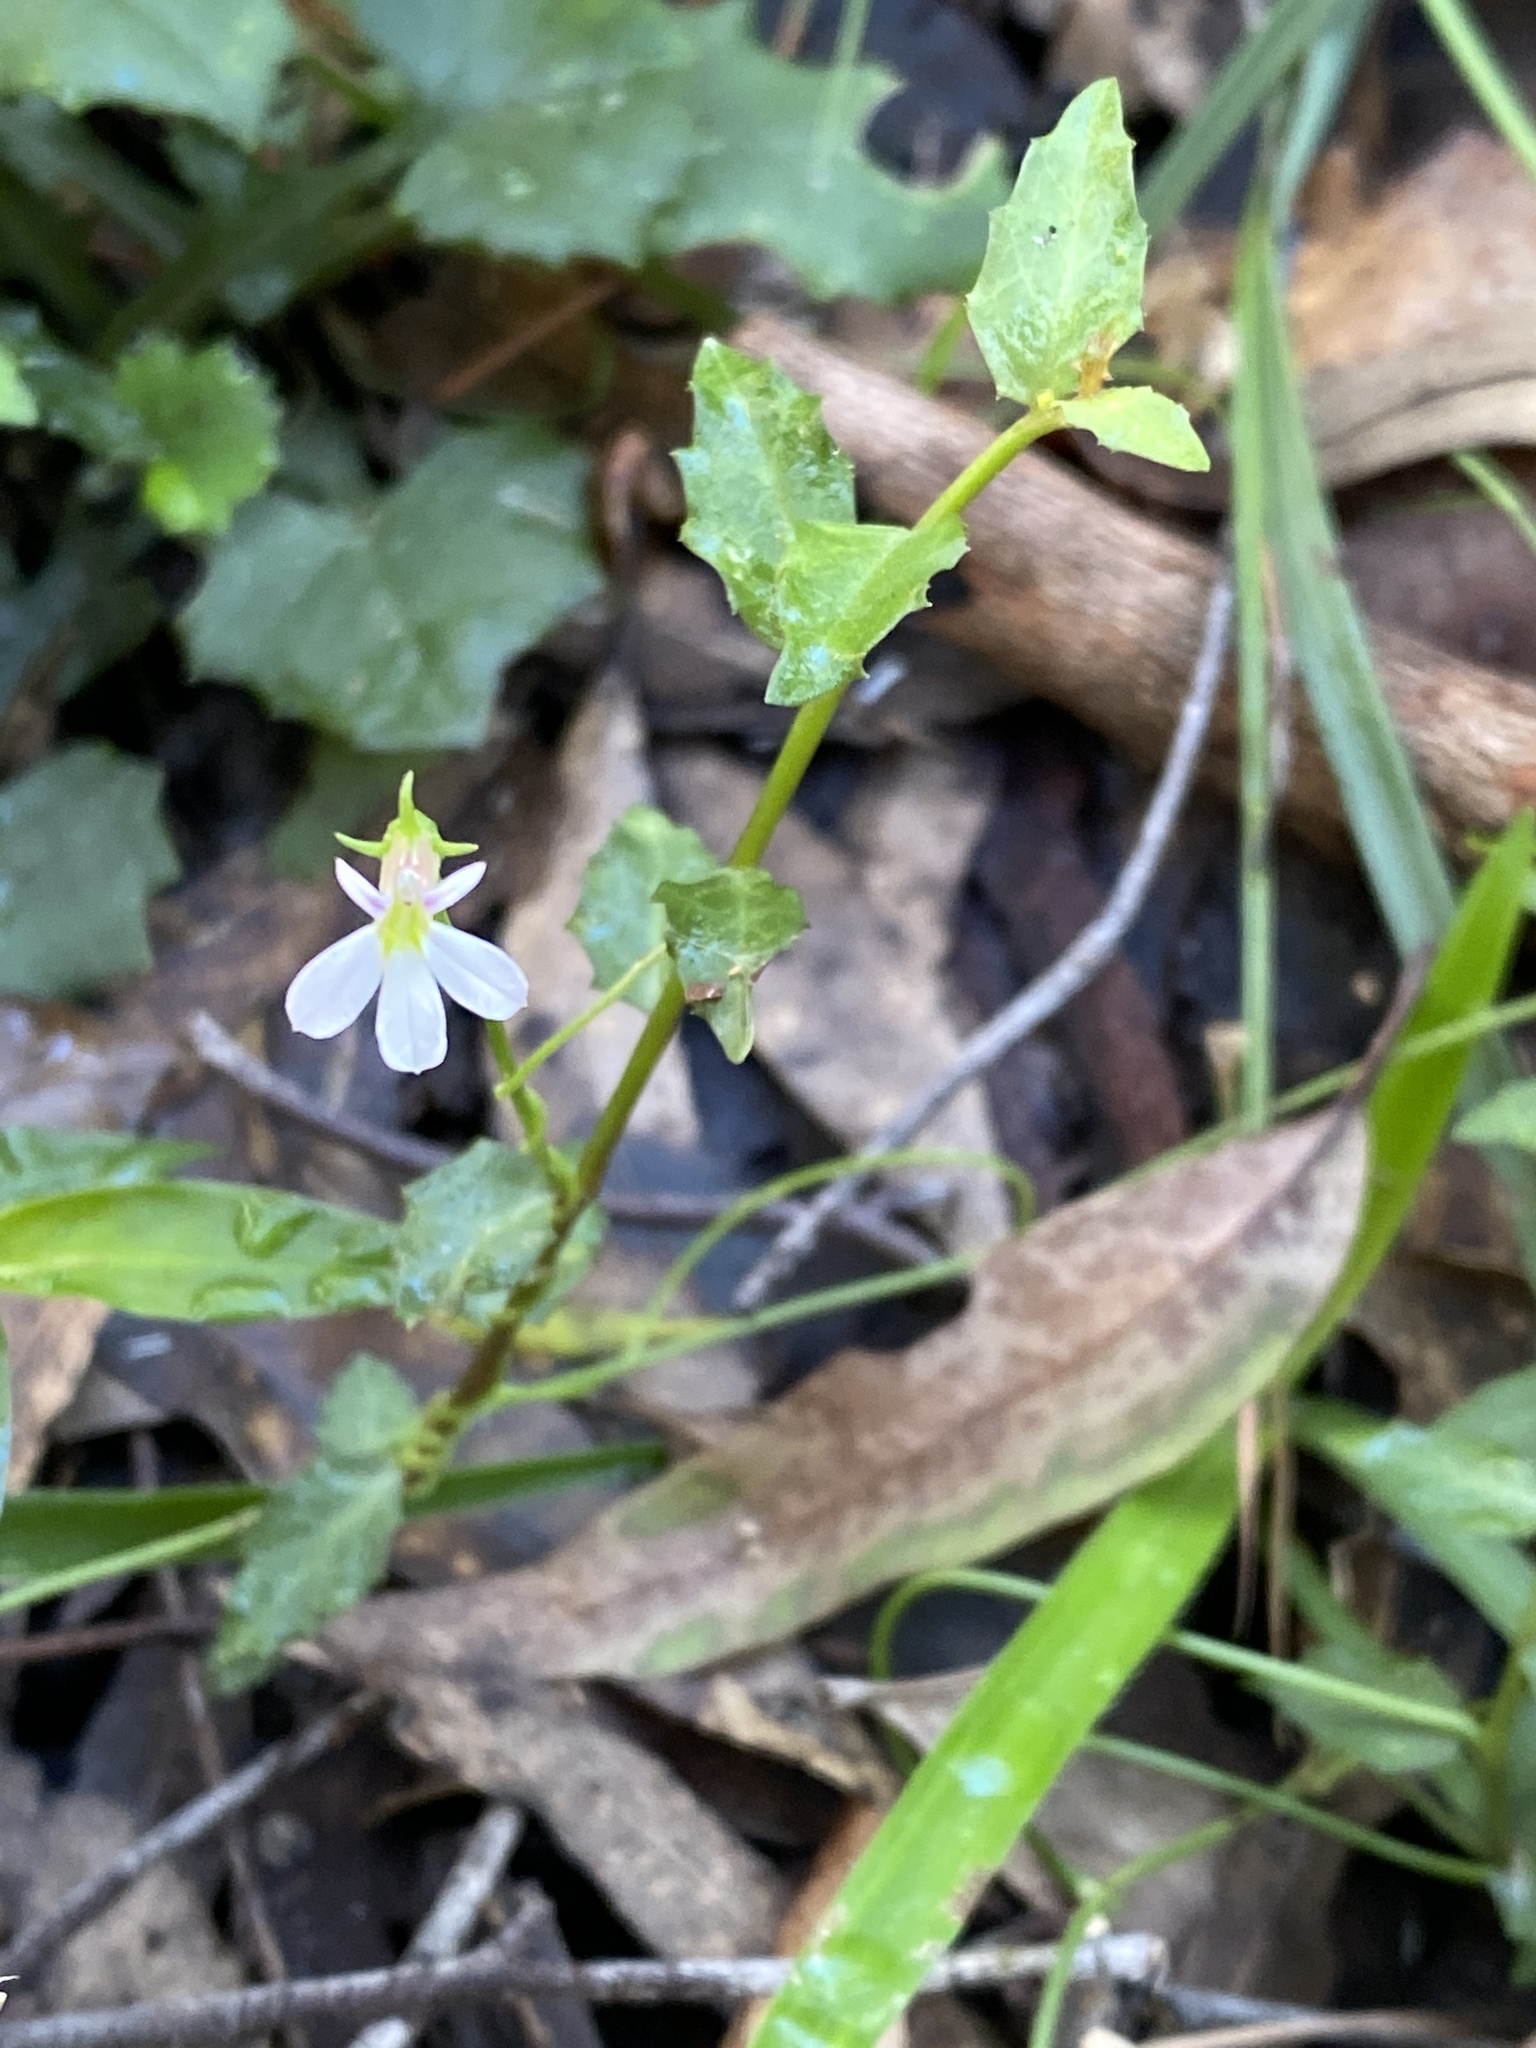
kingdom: Plantae
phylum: Tracheophyta
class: Magnoliopsida
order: Asterales
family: Campanulaceae
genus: Lobelia
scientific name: Lobelia purpurascens
